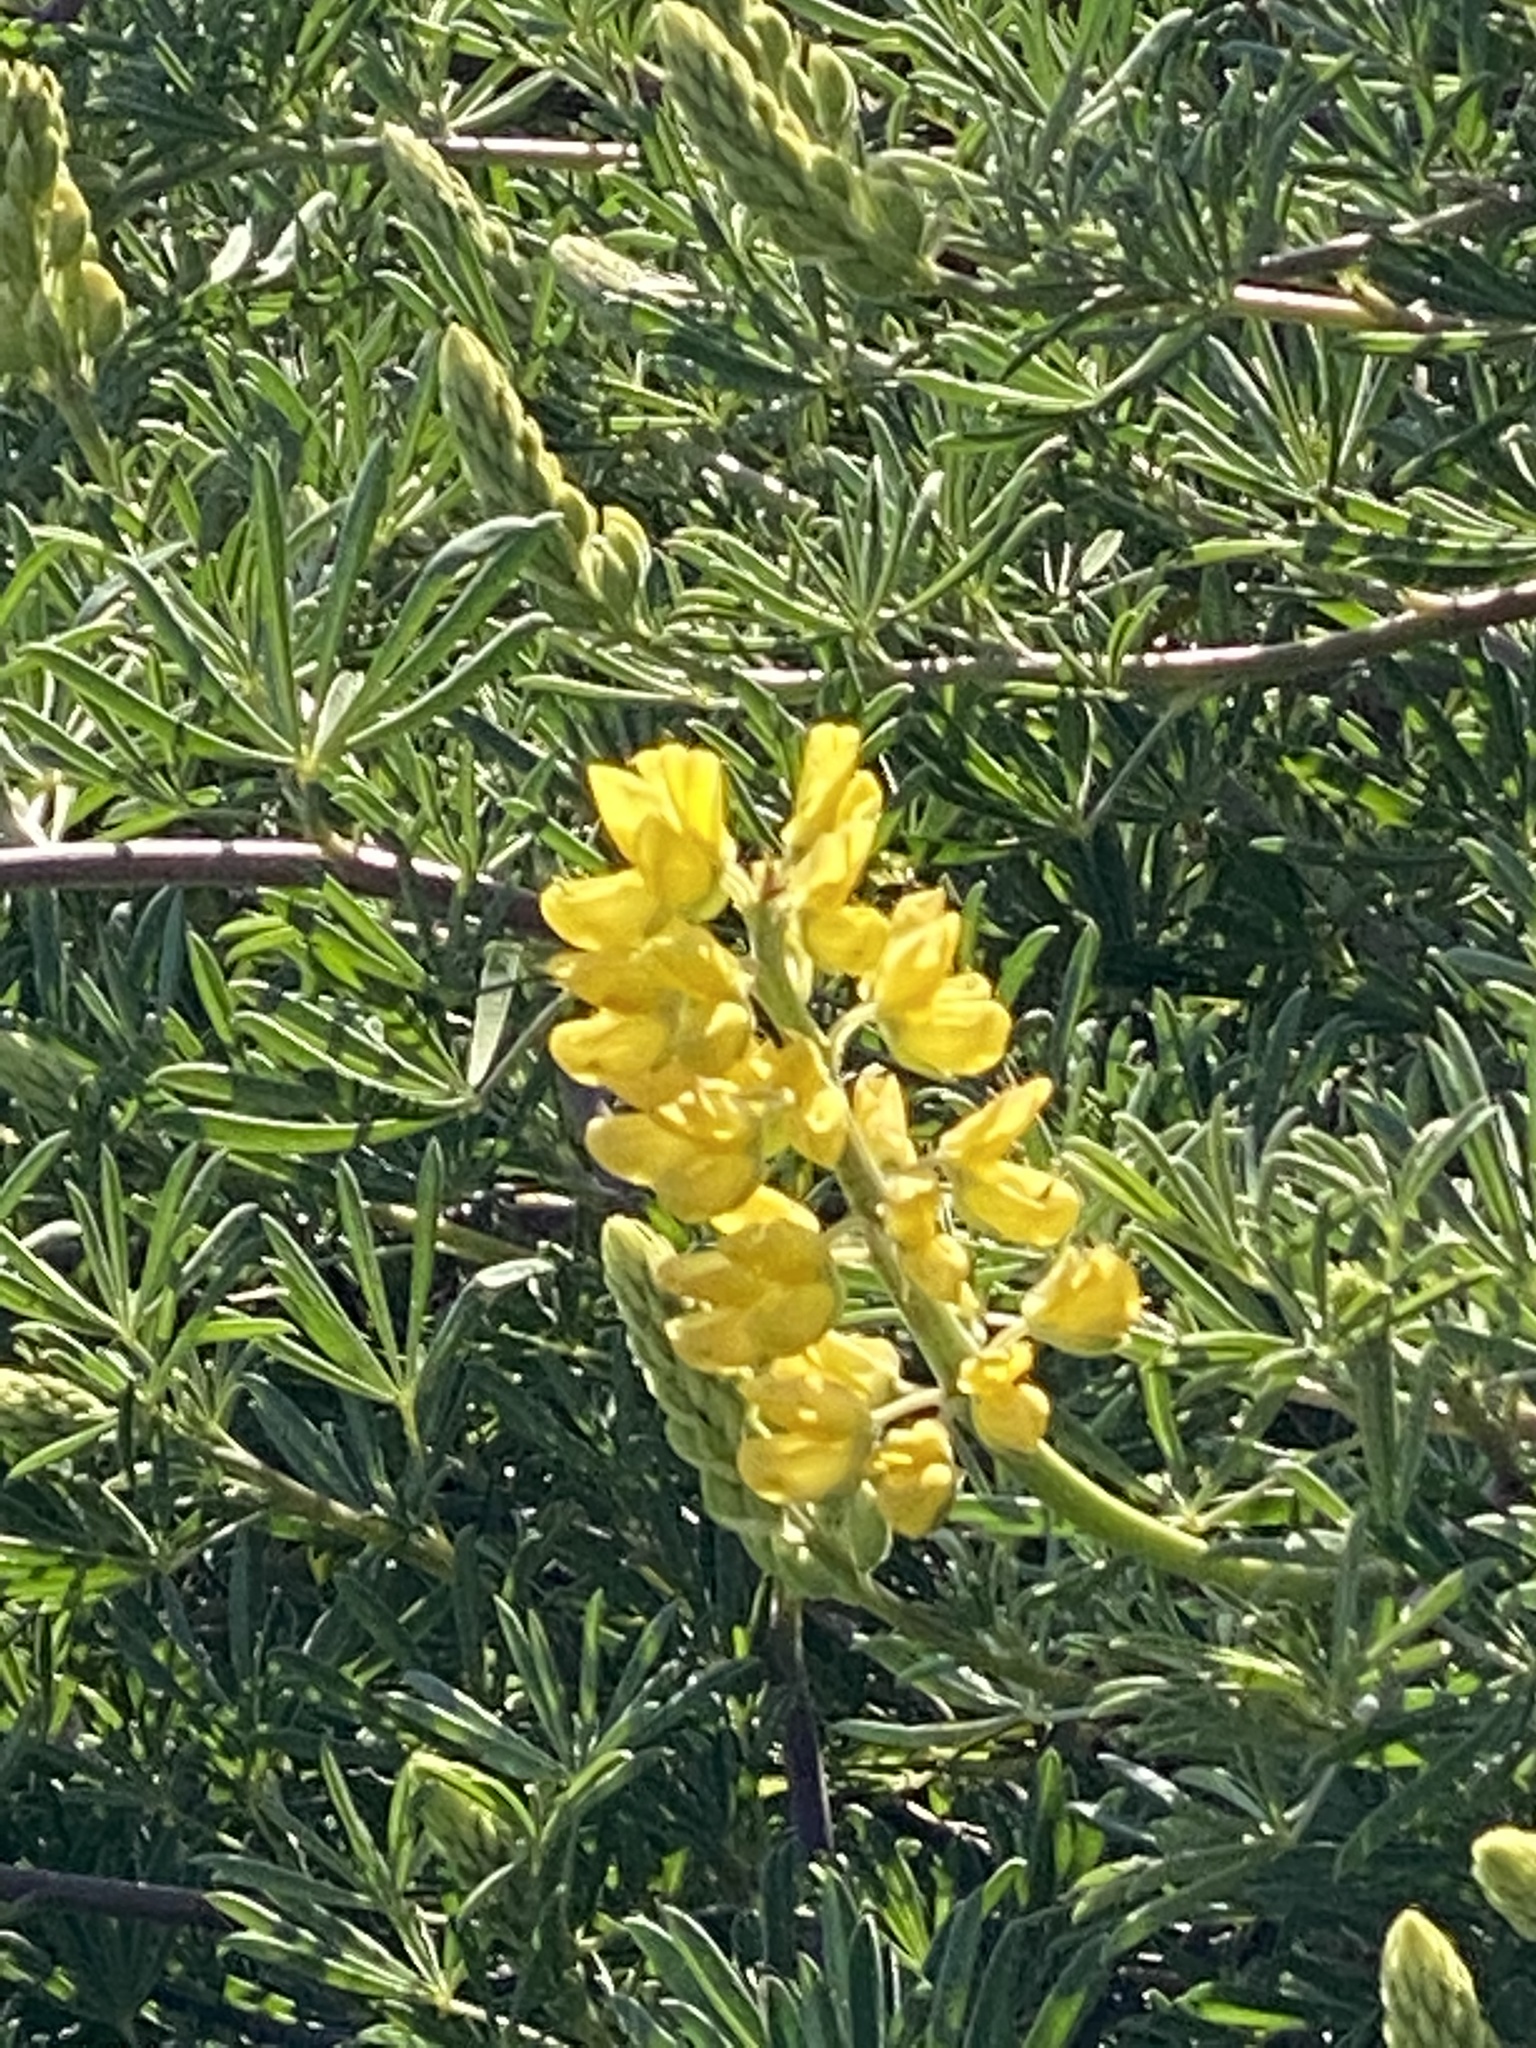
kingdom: Plantae
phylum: Tracheophyta
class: Magnoliopsida
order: Fabales
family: Fabaceae
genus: Lupinus
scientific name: Lupinus arboreus
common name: Yellow bush lupine
